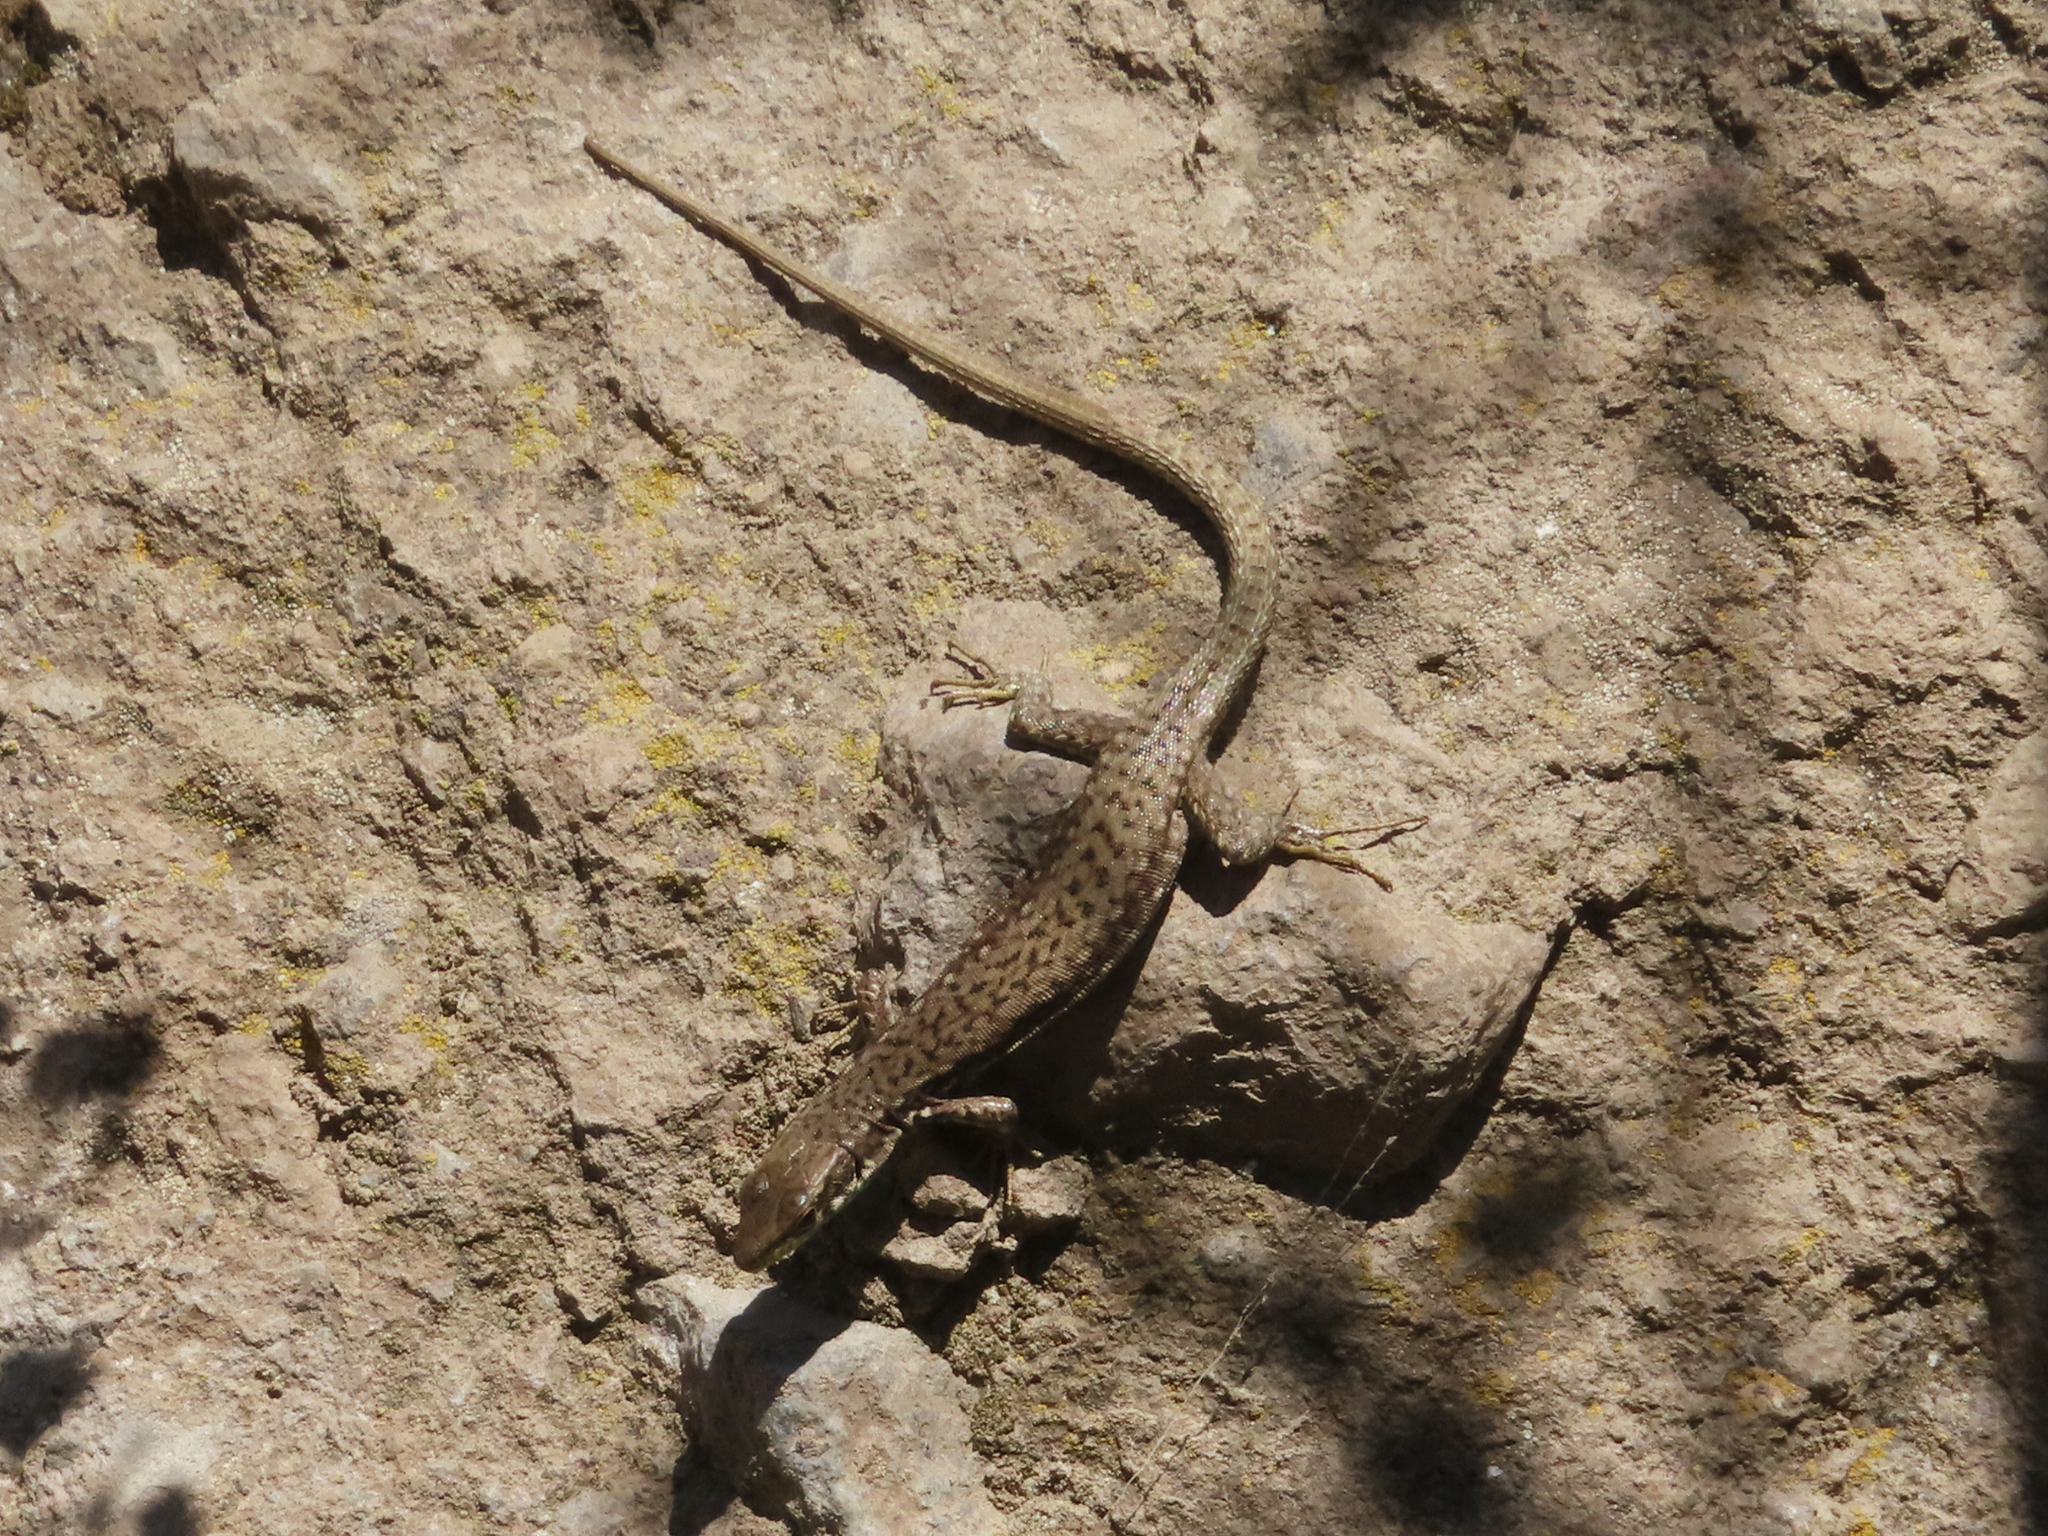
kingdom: Animalia
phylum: Chordata
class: Squamata
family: Lacertidae
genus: Darevskia
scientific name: Darevskia raddei
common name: Radde's lizard
